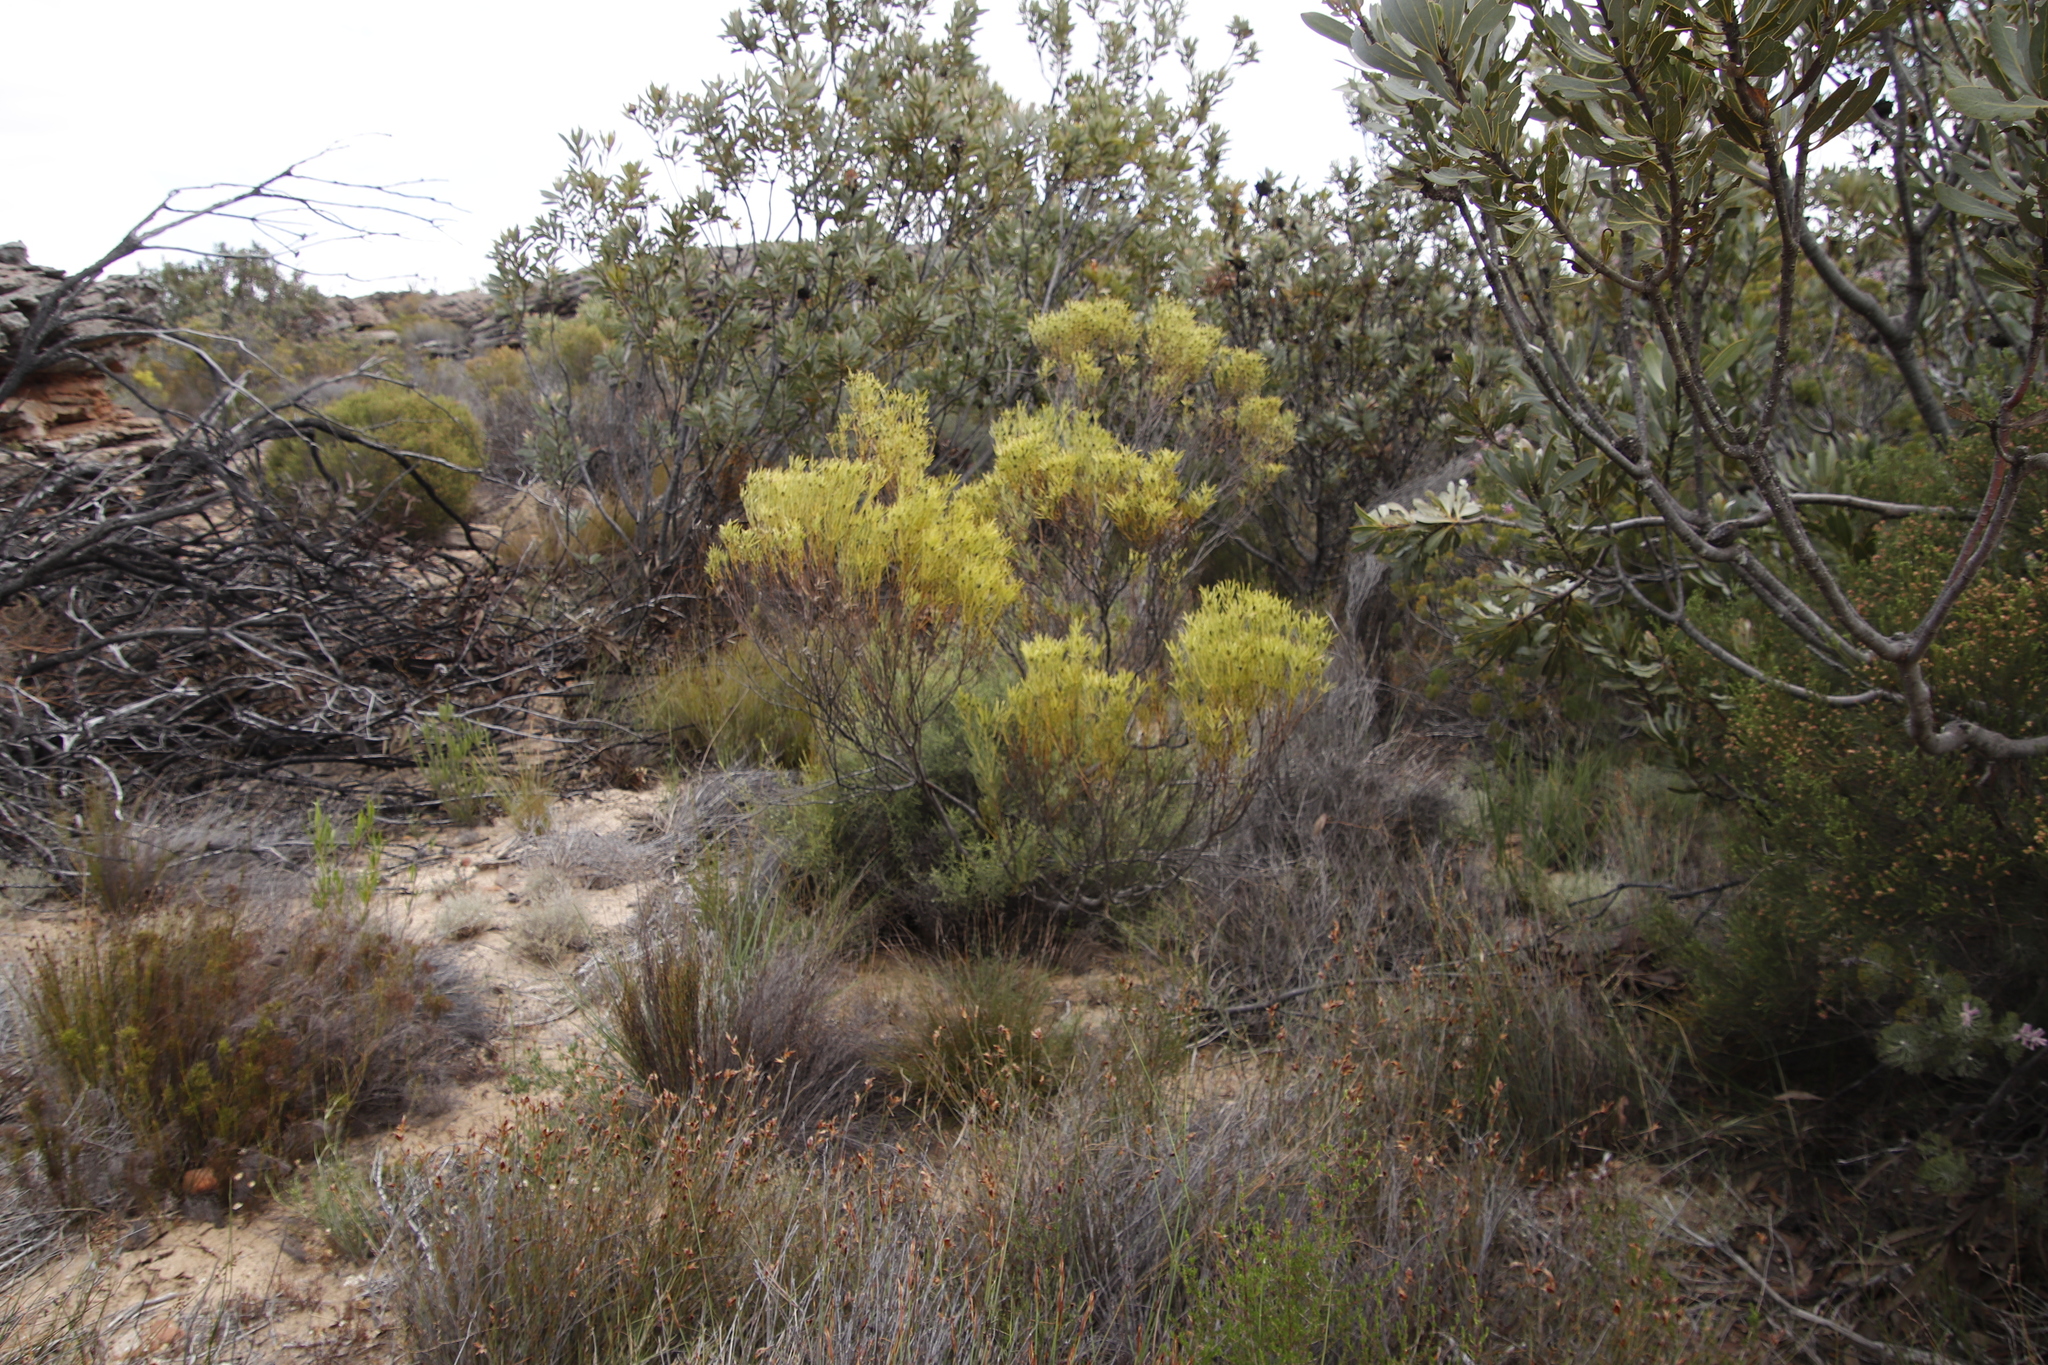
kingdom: Plantae
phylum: Tracheophyta
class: Magnoliopsida
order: Proteales
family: Proteaceae
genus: Leucadendron
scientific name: Leucadendron salignum
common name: Common sunshine conebush
